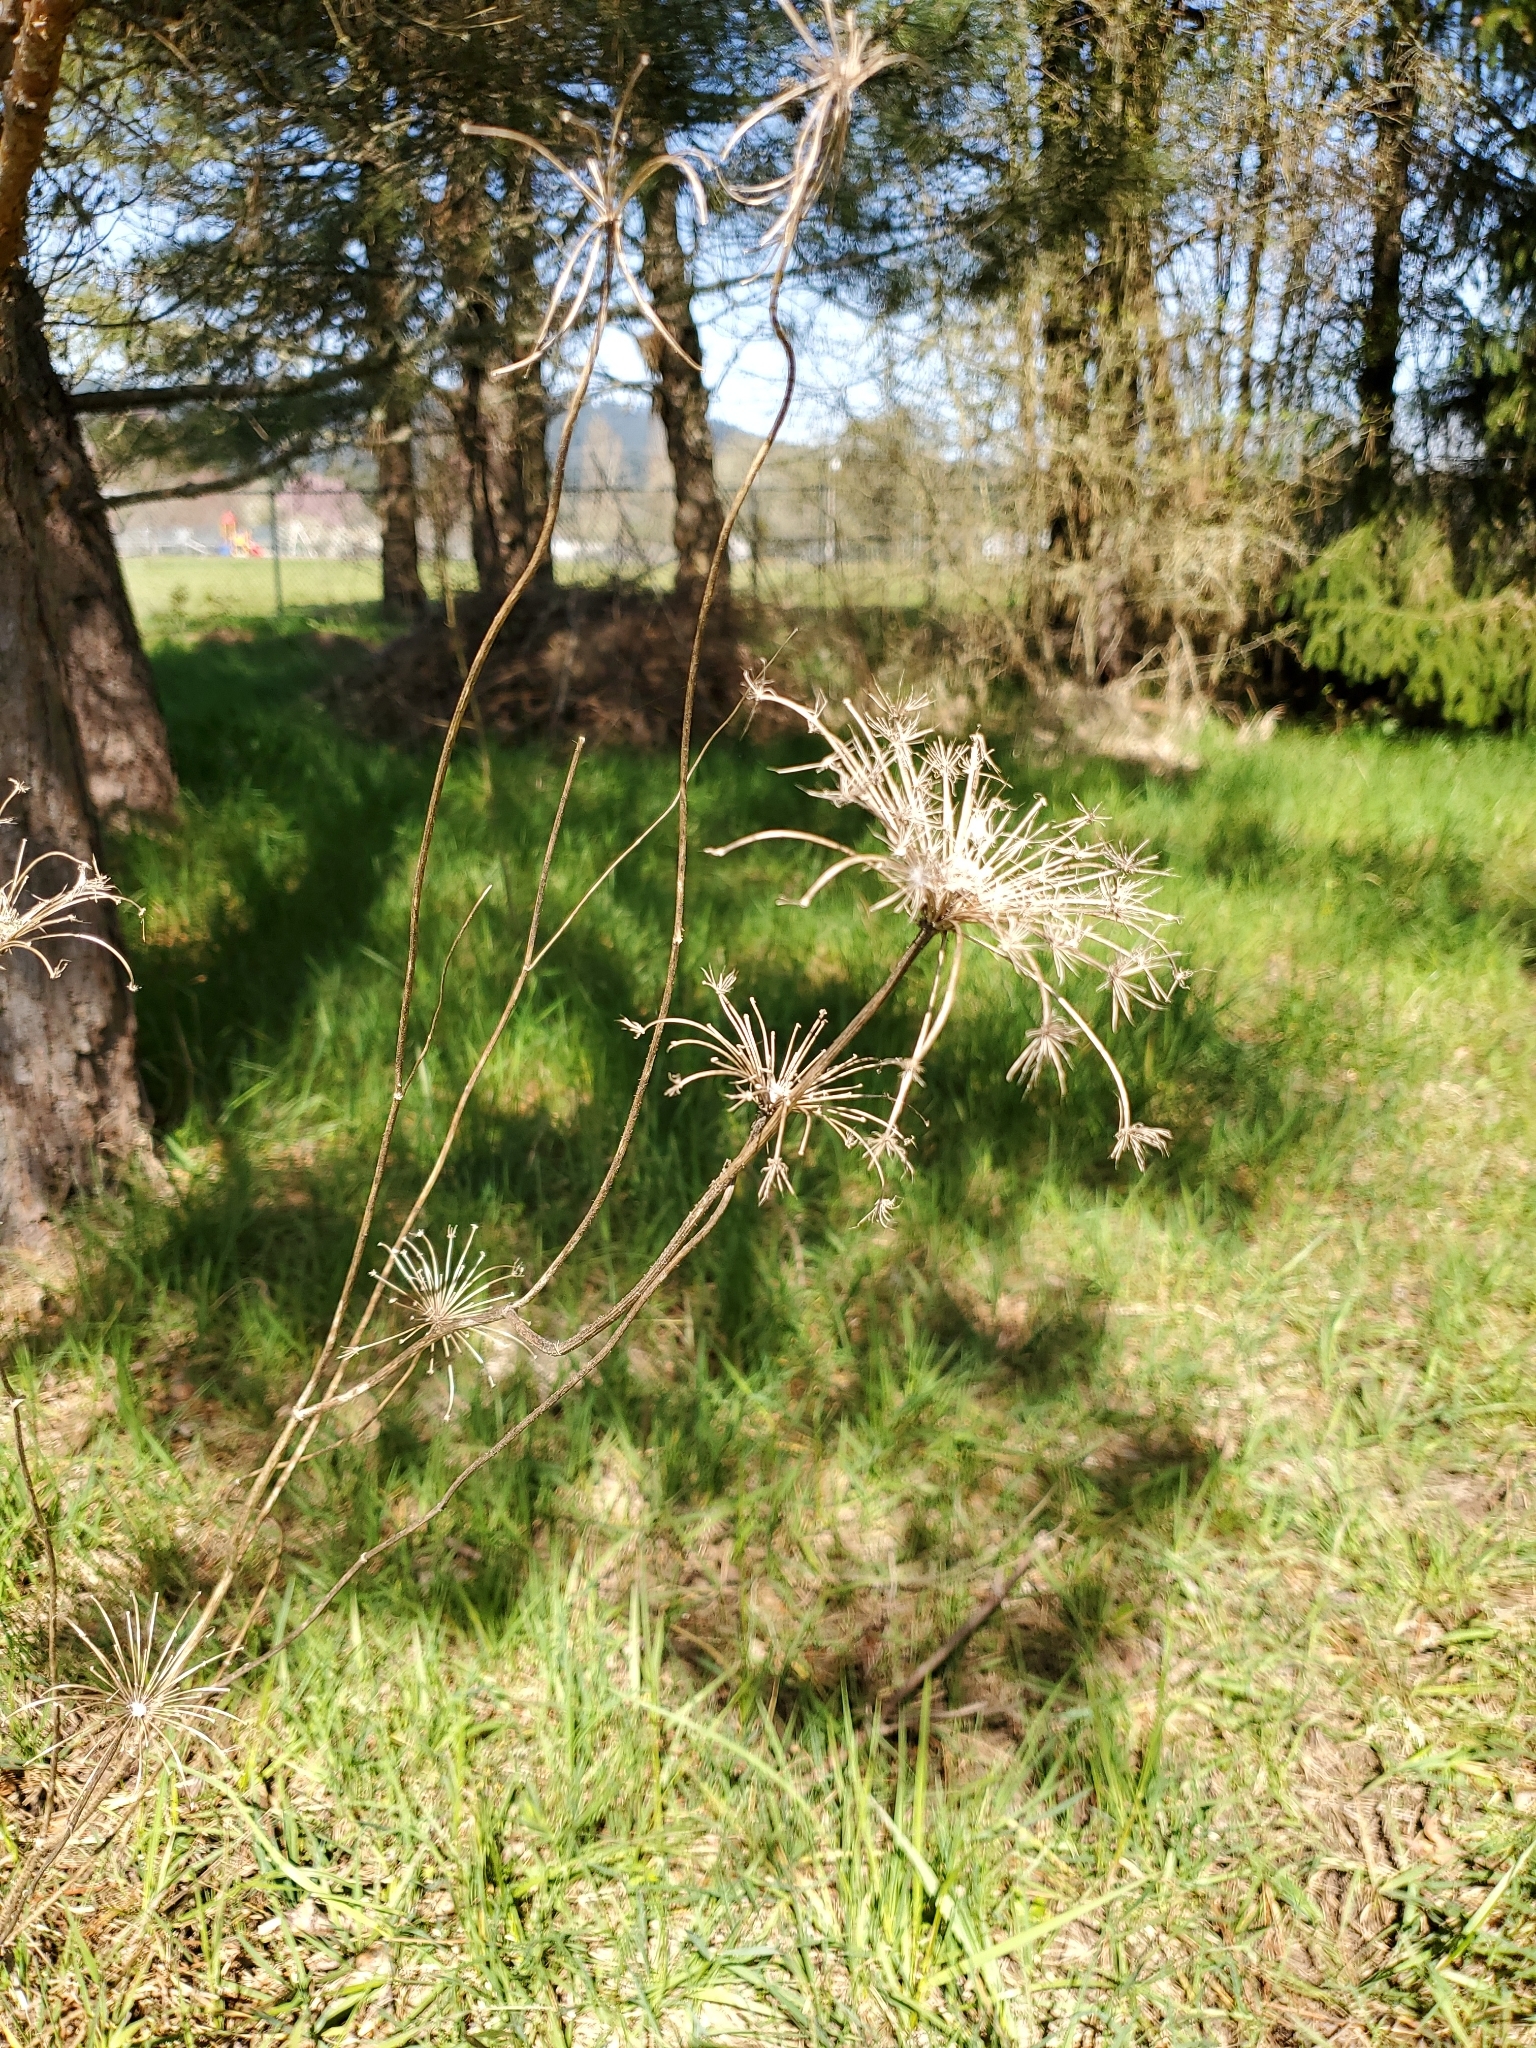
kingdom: Plantae
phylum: Tracheophyta
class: Magnoliopsida
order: Apiales
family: Apiaceae
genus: Daucus
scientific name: Daucus carota
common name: Wild carrot
